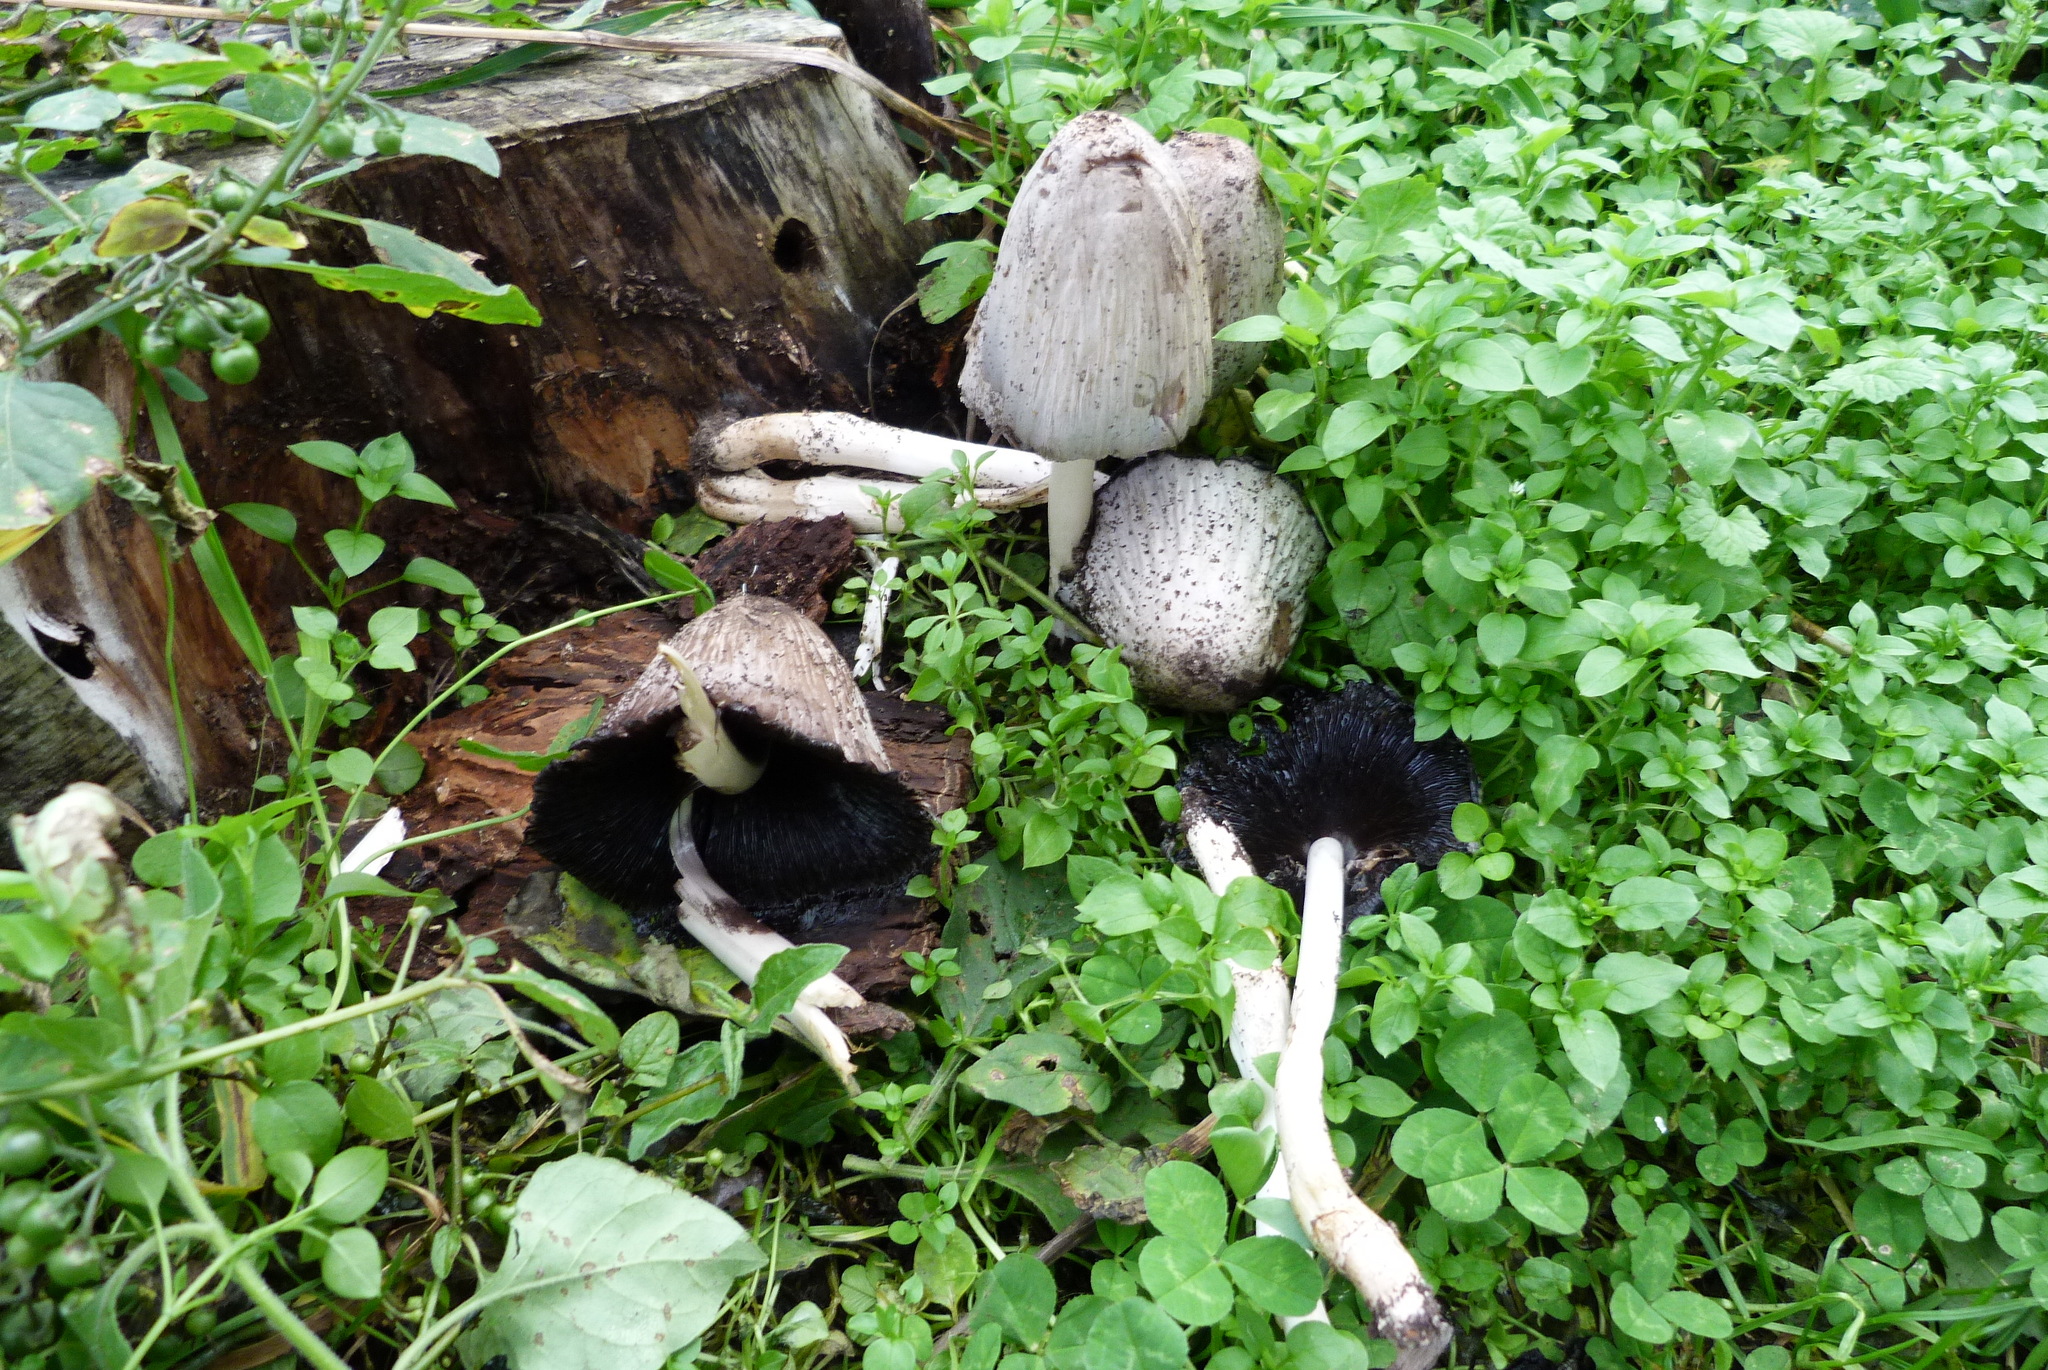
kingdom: Fungi
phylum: Basidiomycota
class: Agaricomycetes
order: Agaricales
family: Psathyrellaceae
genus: Coprinopsis
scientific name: Coprinopsis atramentaria
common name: Common ink-cap
